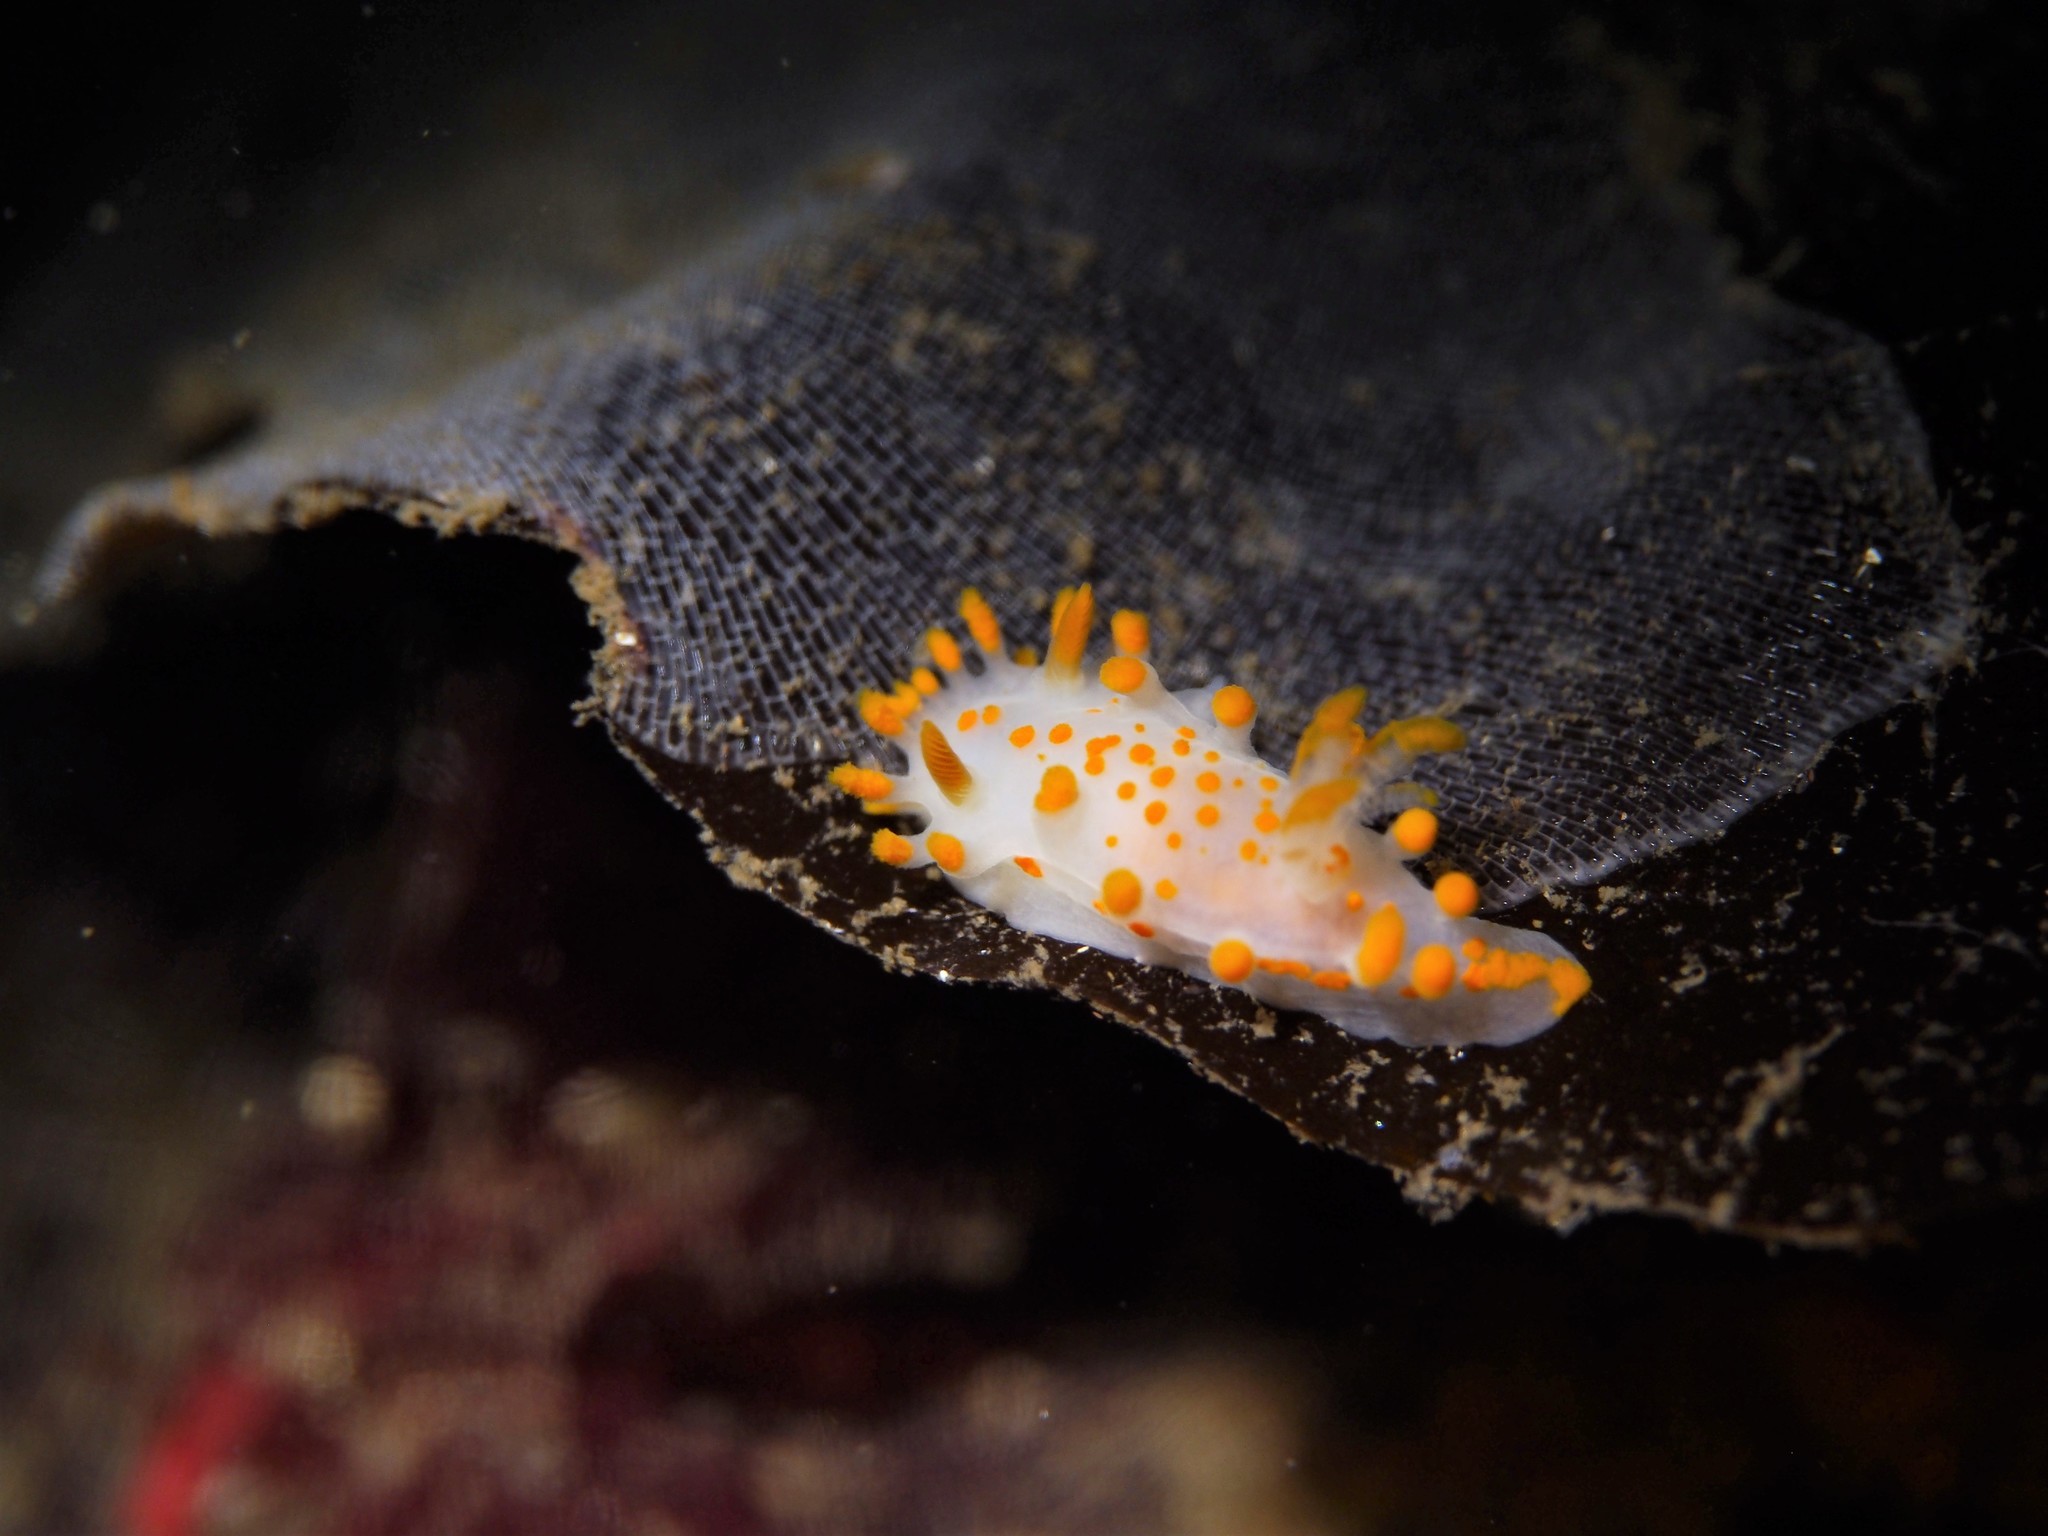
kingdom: Animalia
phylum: Mollusca
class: Gastropoda
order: Nudibranchia
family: Polyceridae
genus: Limacia
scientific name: Limacia clavigera
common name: Orange-clubbed sea slug
